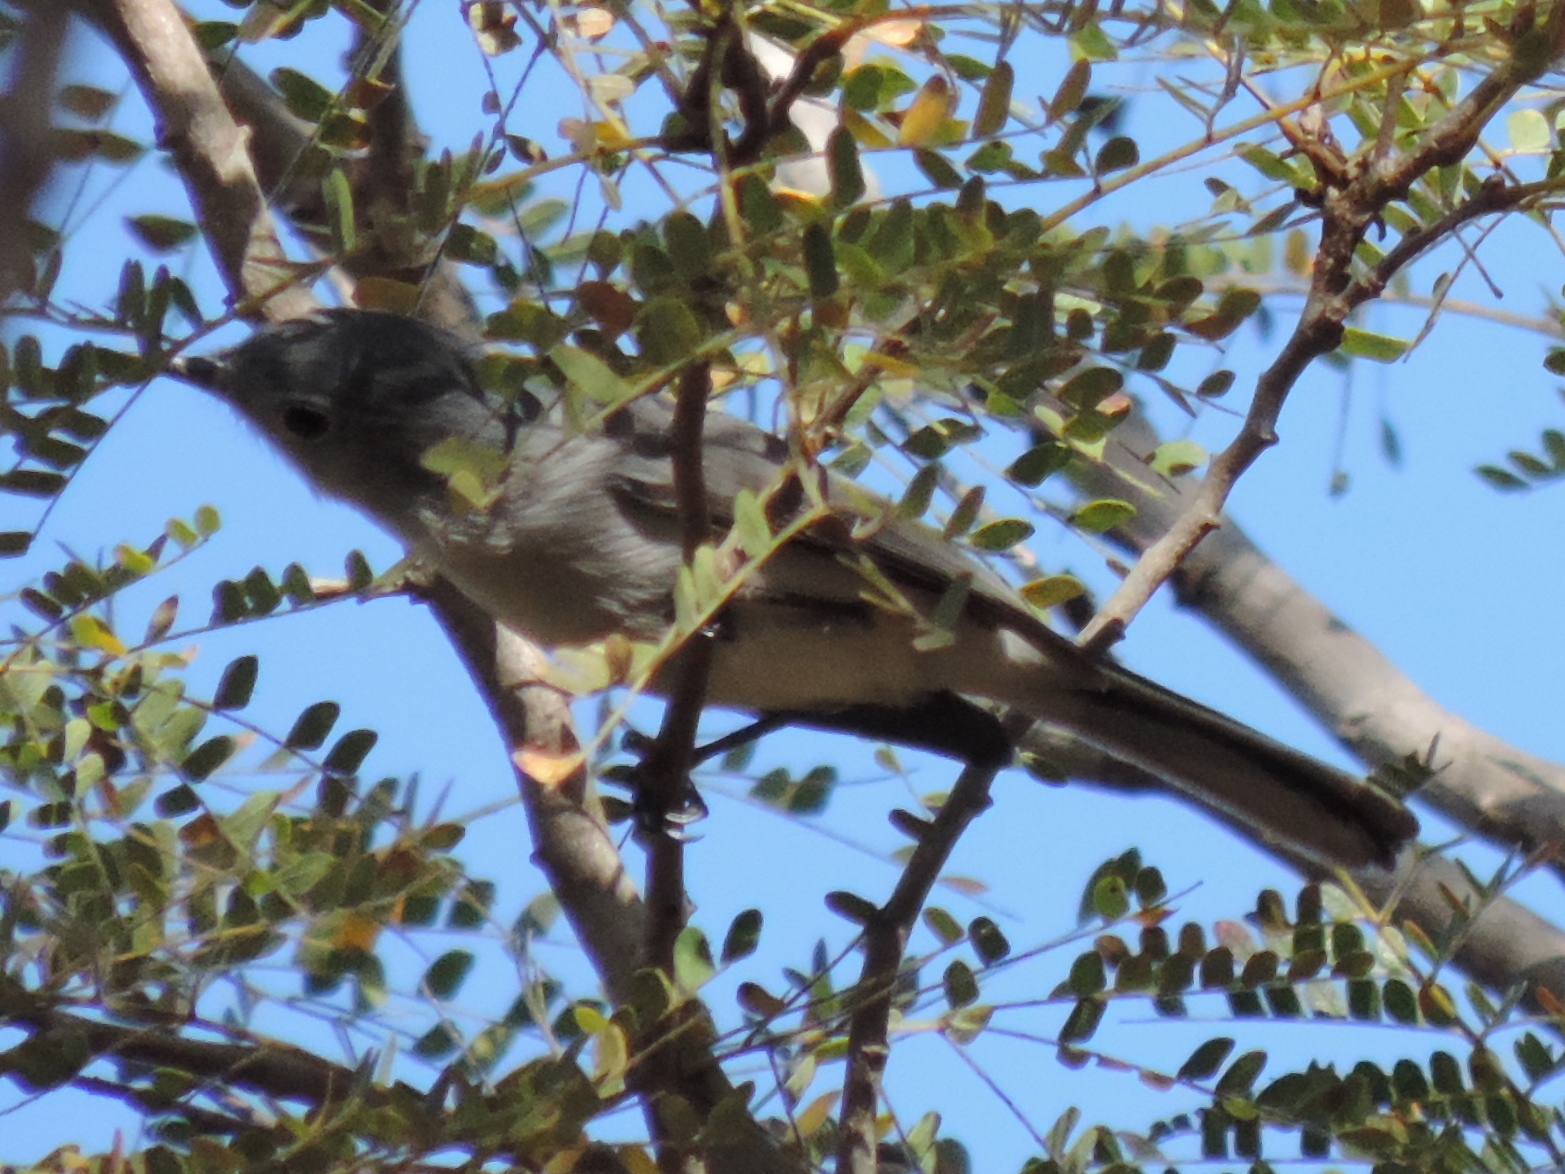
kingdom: Animalia
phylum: Chordata
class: Aves
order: Passeriformes
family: Polioptilidae
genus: Polioptila
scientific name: Polioptila caerulea
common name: Blue-gray gnatcatcher
